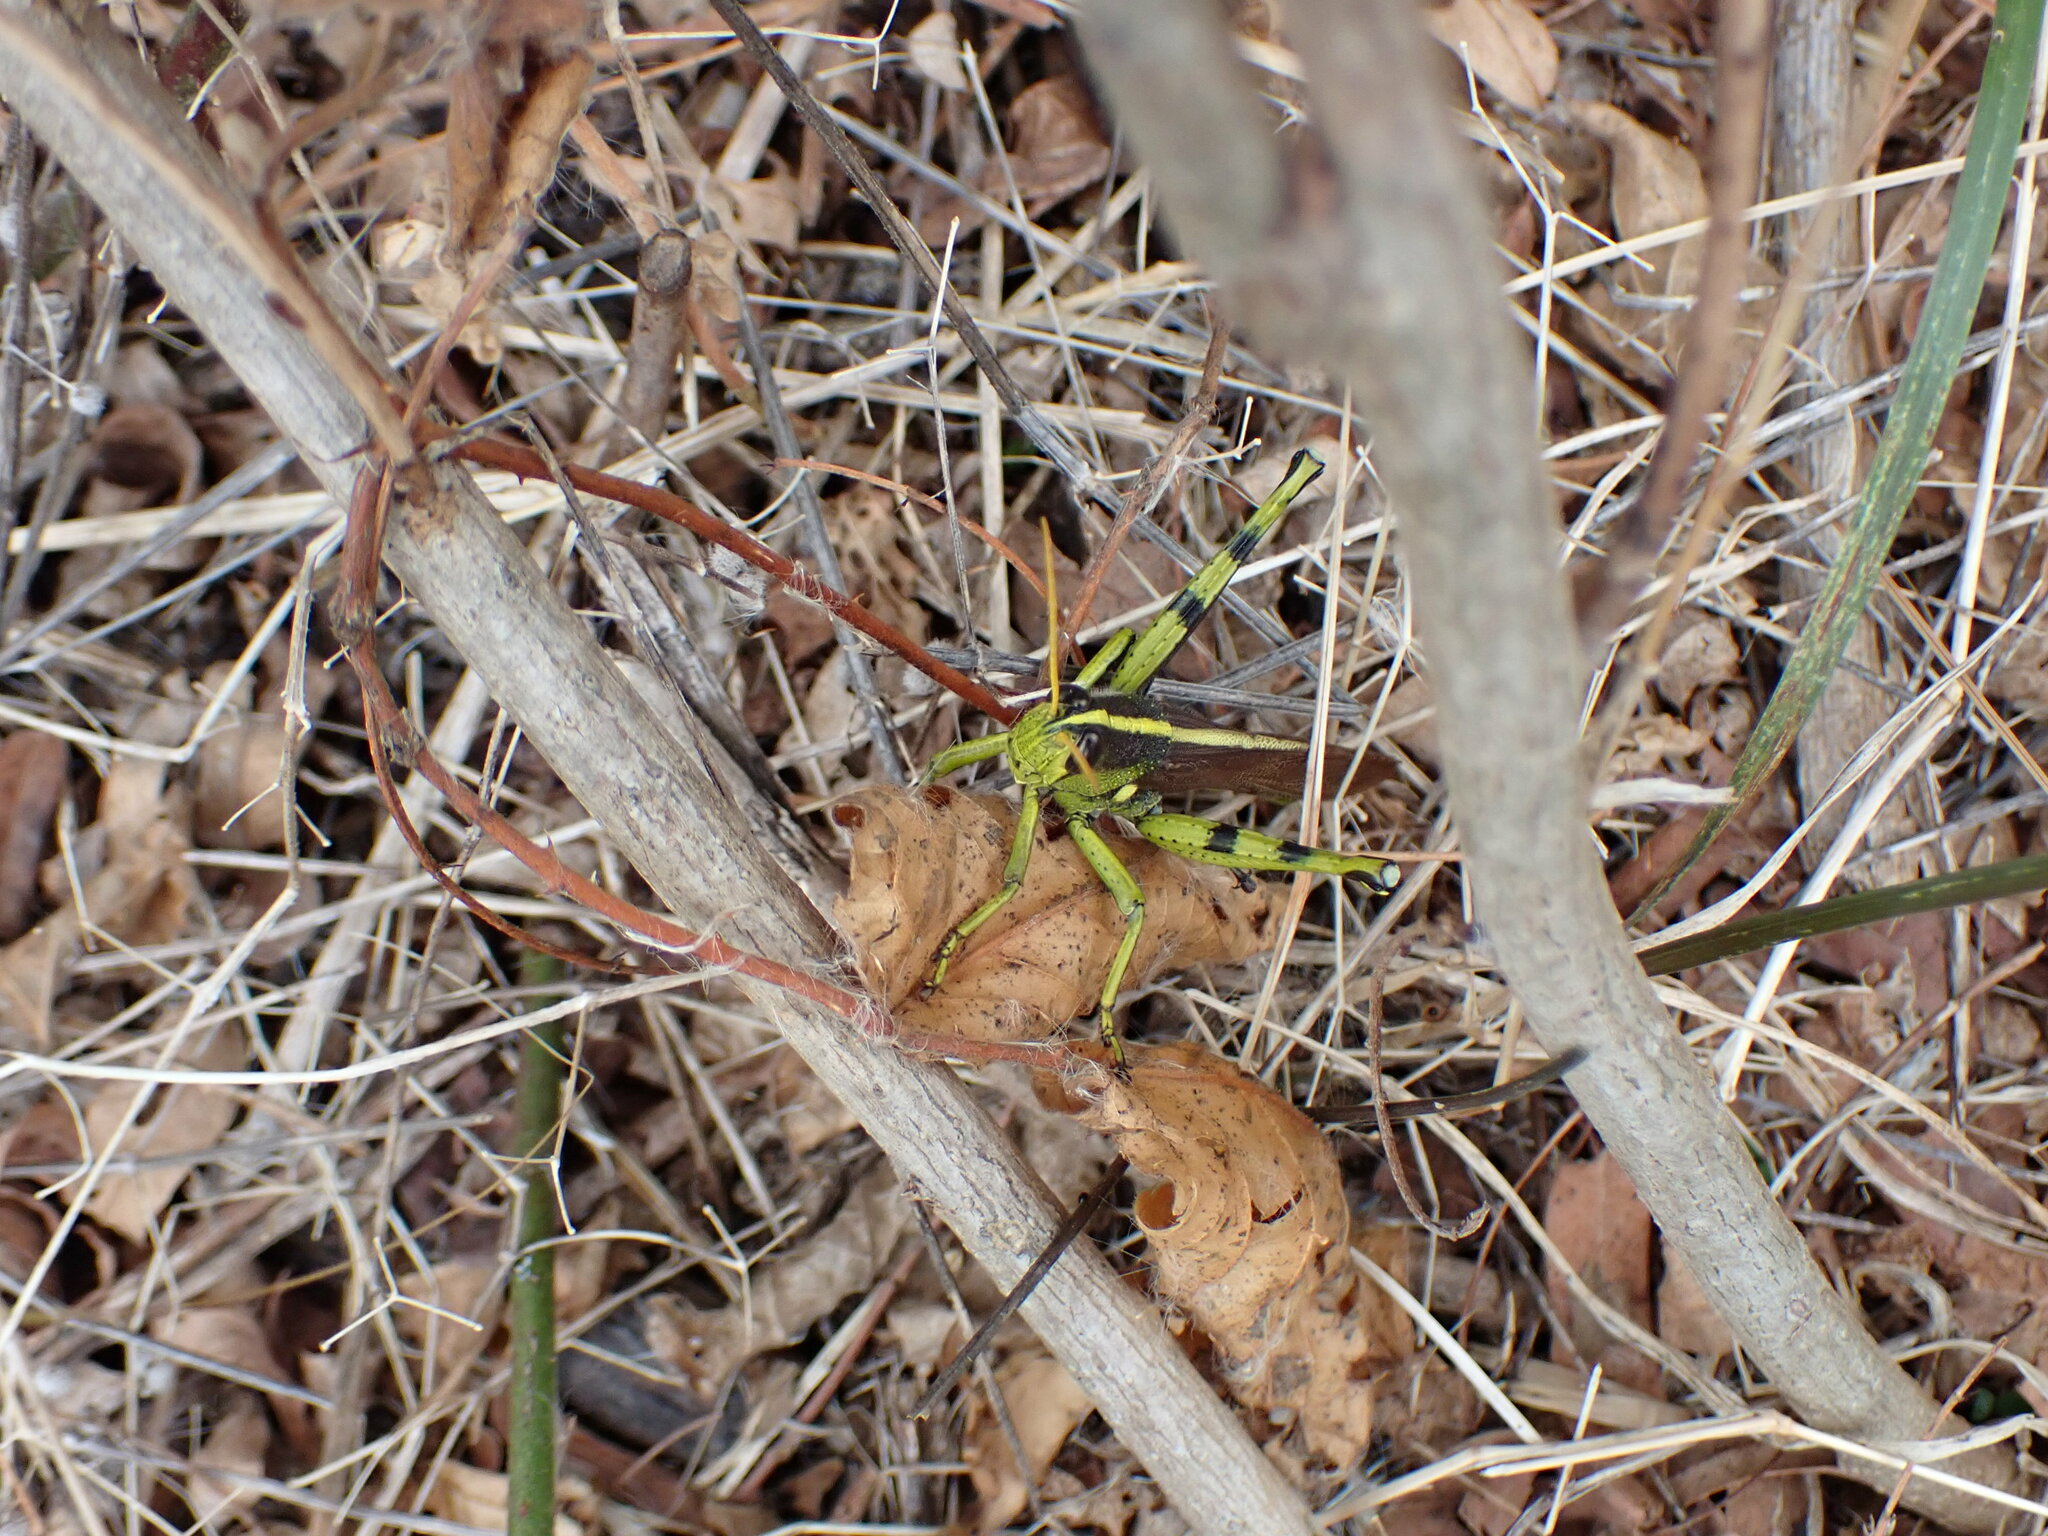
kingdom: Animalia
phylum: Arthropoda
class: Insecta
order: Orthoptera
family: Acrididae
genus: Schistocerca
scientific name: Schistocerca obscura
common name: Obscure bird grasshopper
